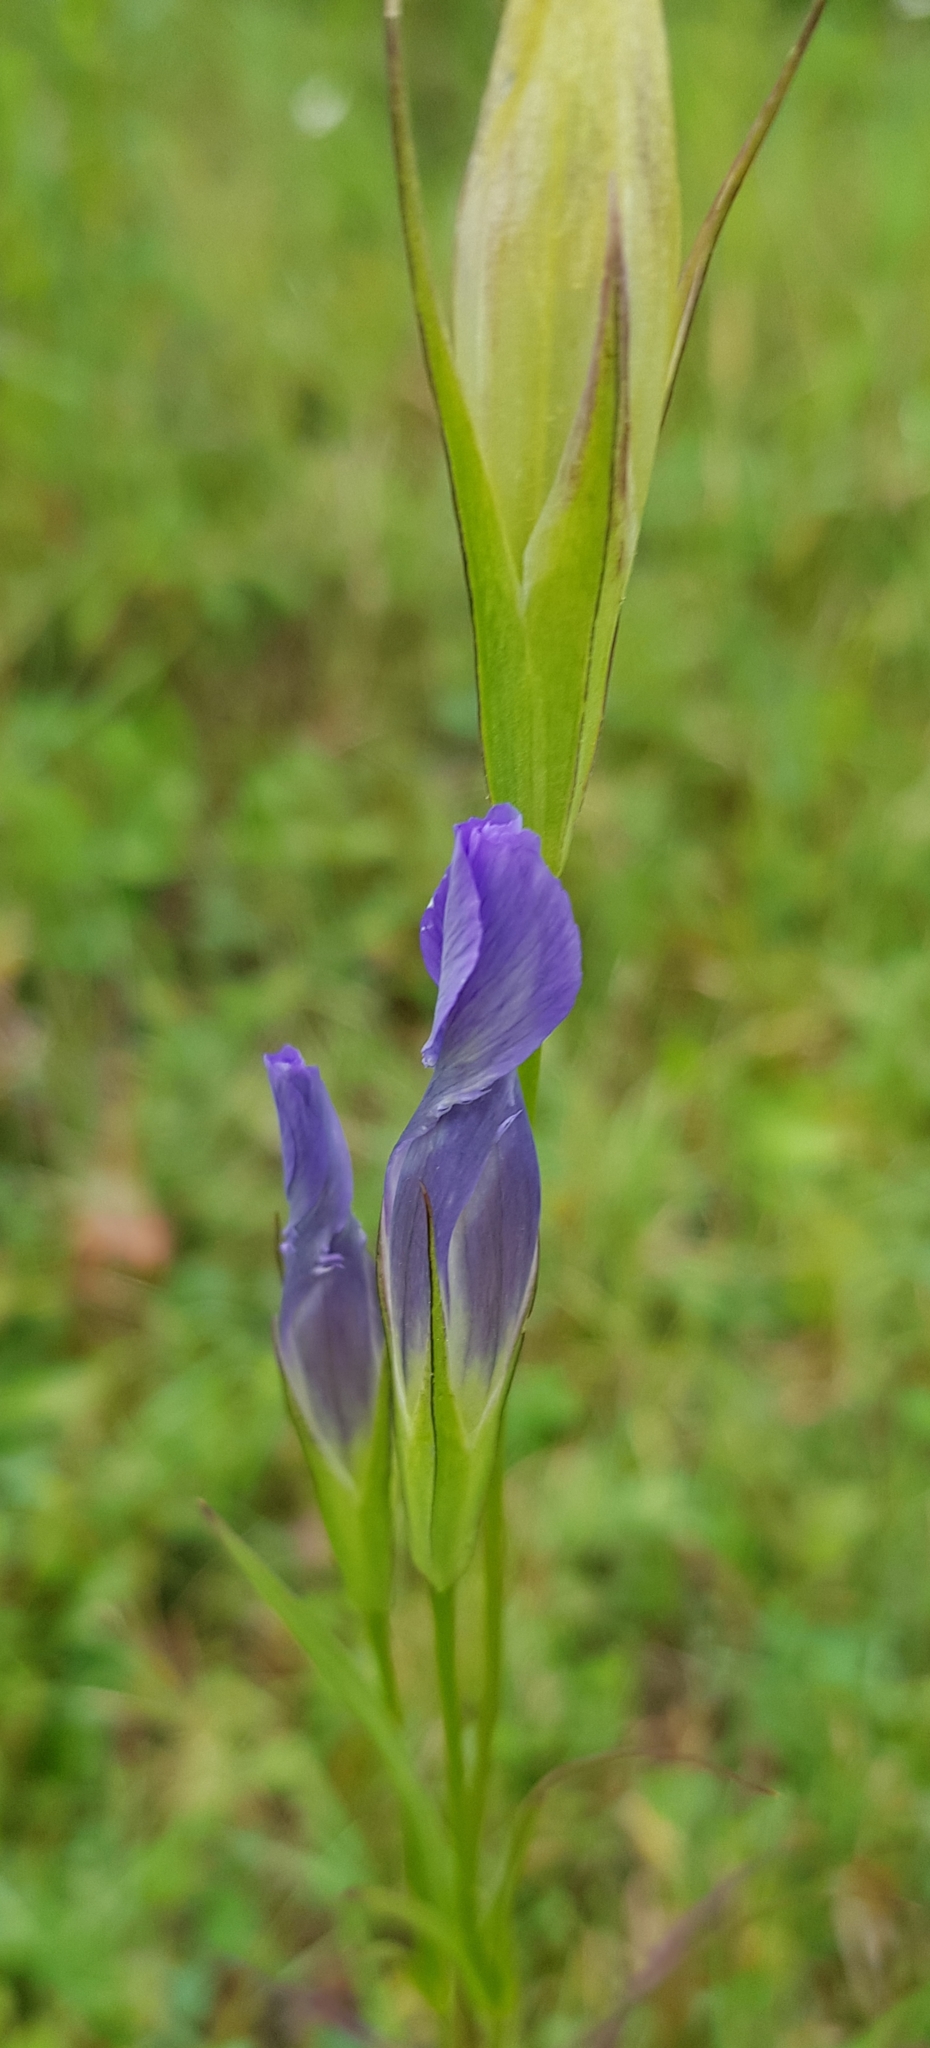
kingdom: Plantae
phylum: Tracheophyta
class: Magnoliopsida
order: Gentianales
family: Gentianaceae
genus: Gentianopsis
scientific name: Gentianopsis barbata
